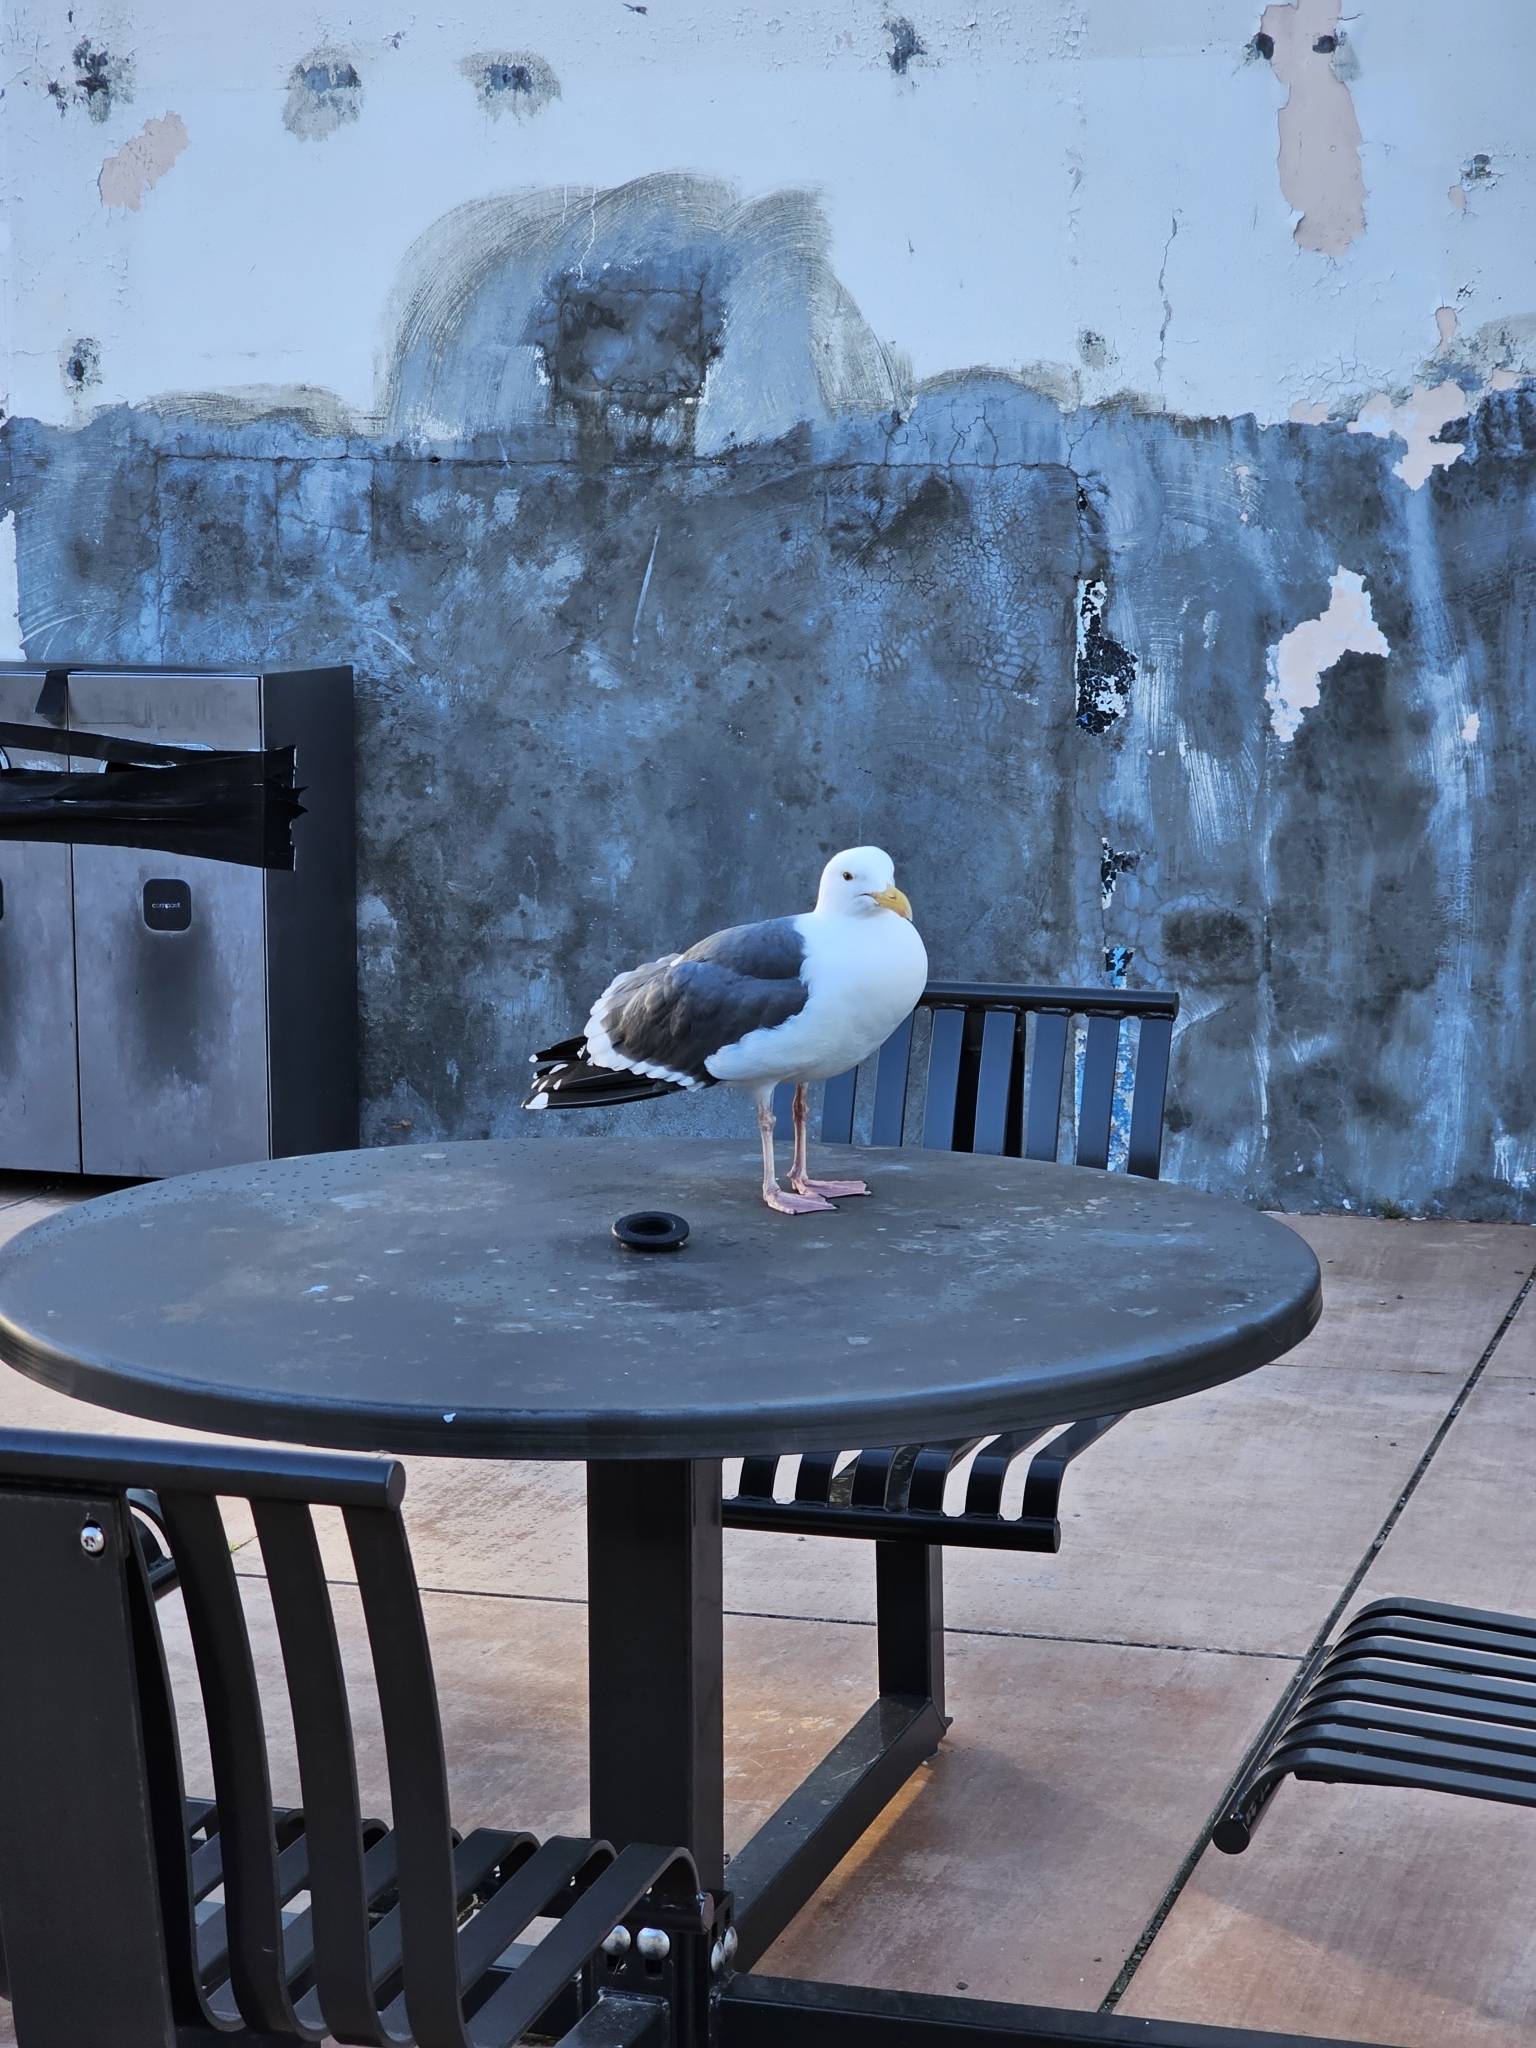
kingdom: Animalia
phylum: Chordata
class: Aves
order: Charadriiformes
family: Laridae
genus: Larus
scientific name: Larus occidentalis
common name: Western gull
